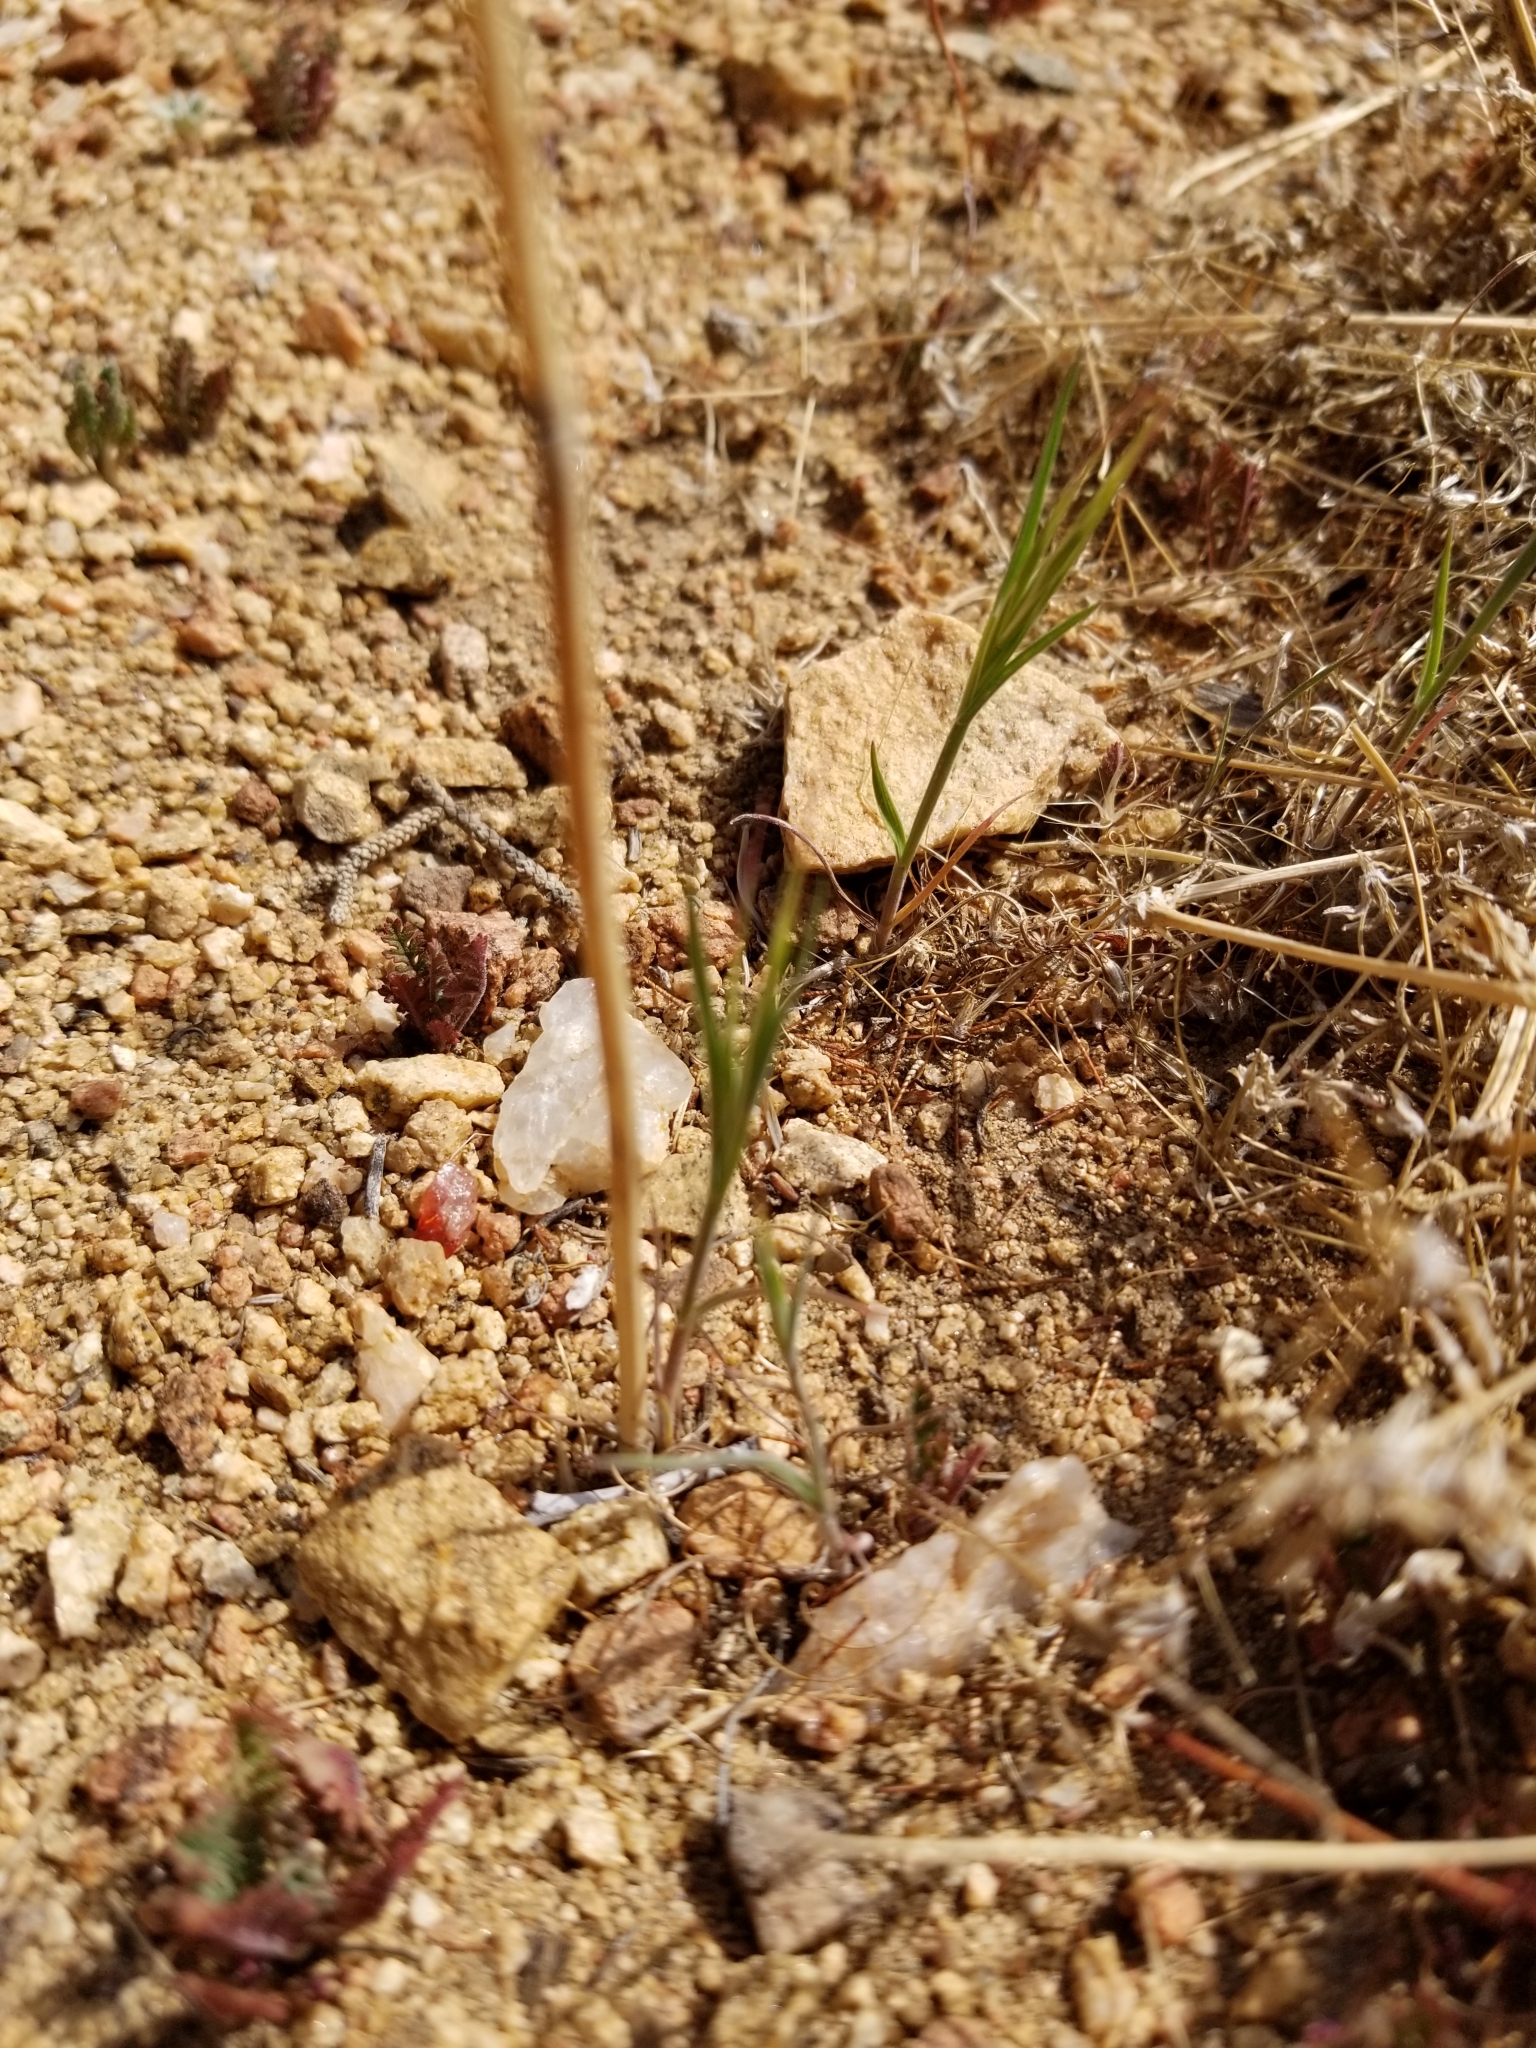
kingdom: Plantae
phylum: Tracheophyta
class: Magnoliopsida
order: Lamiales
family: Lamiaceae
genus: Salvia
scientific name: Salvia columbariae
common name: Chia
